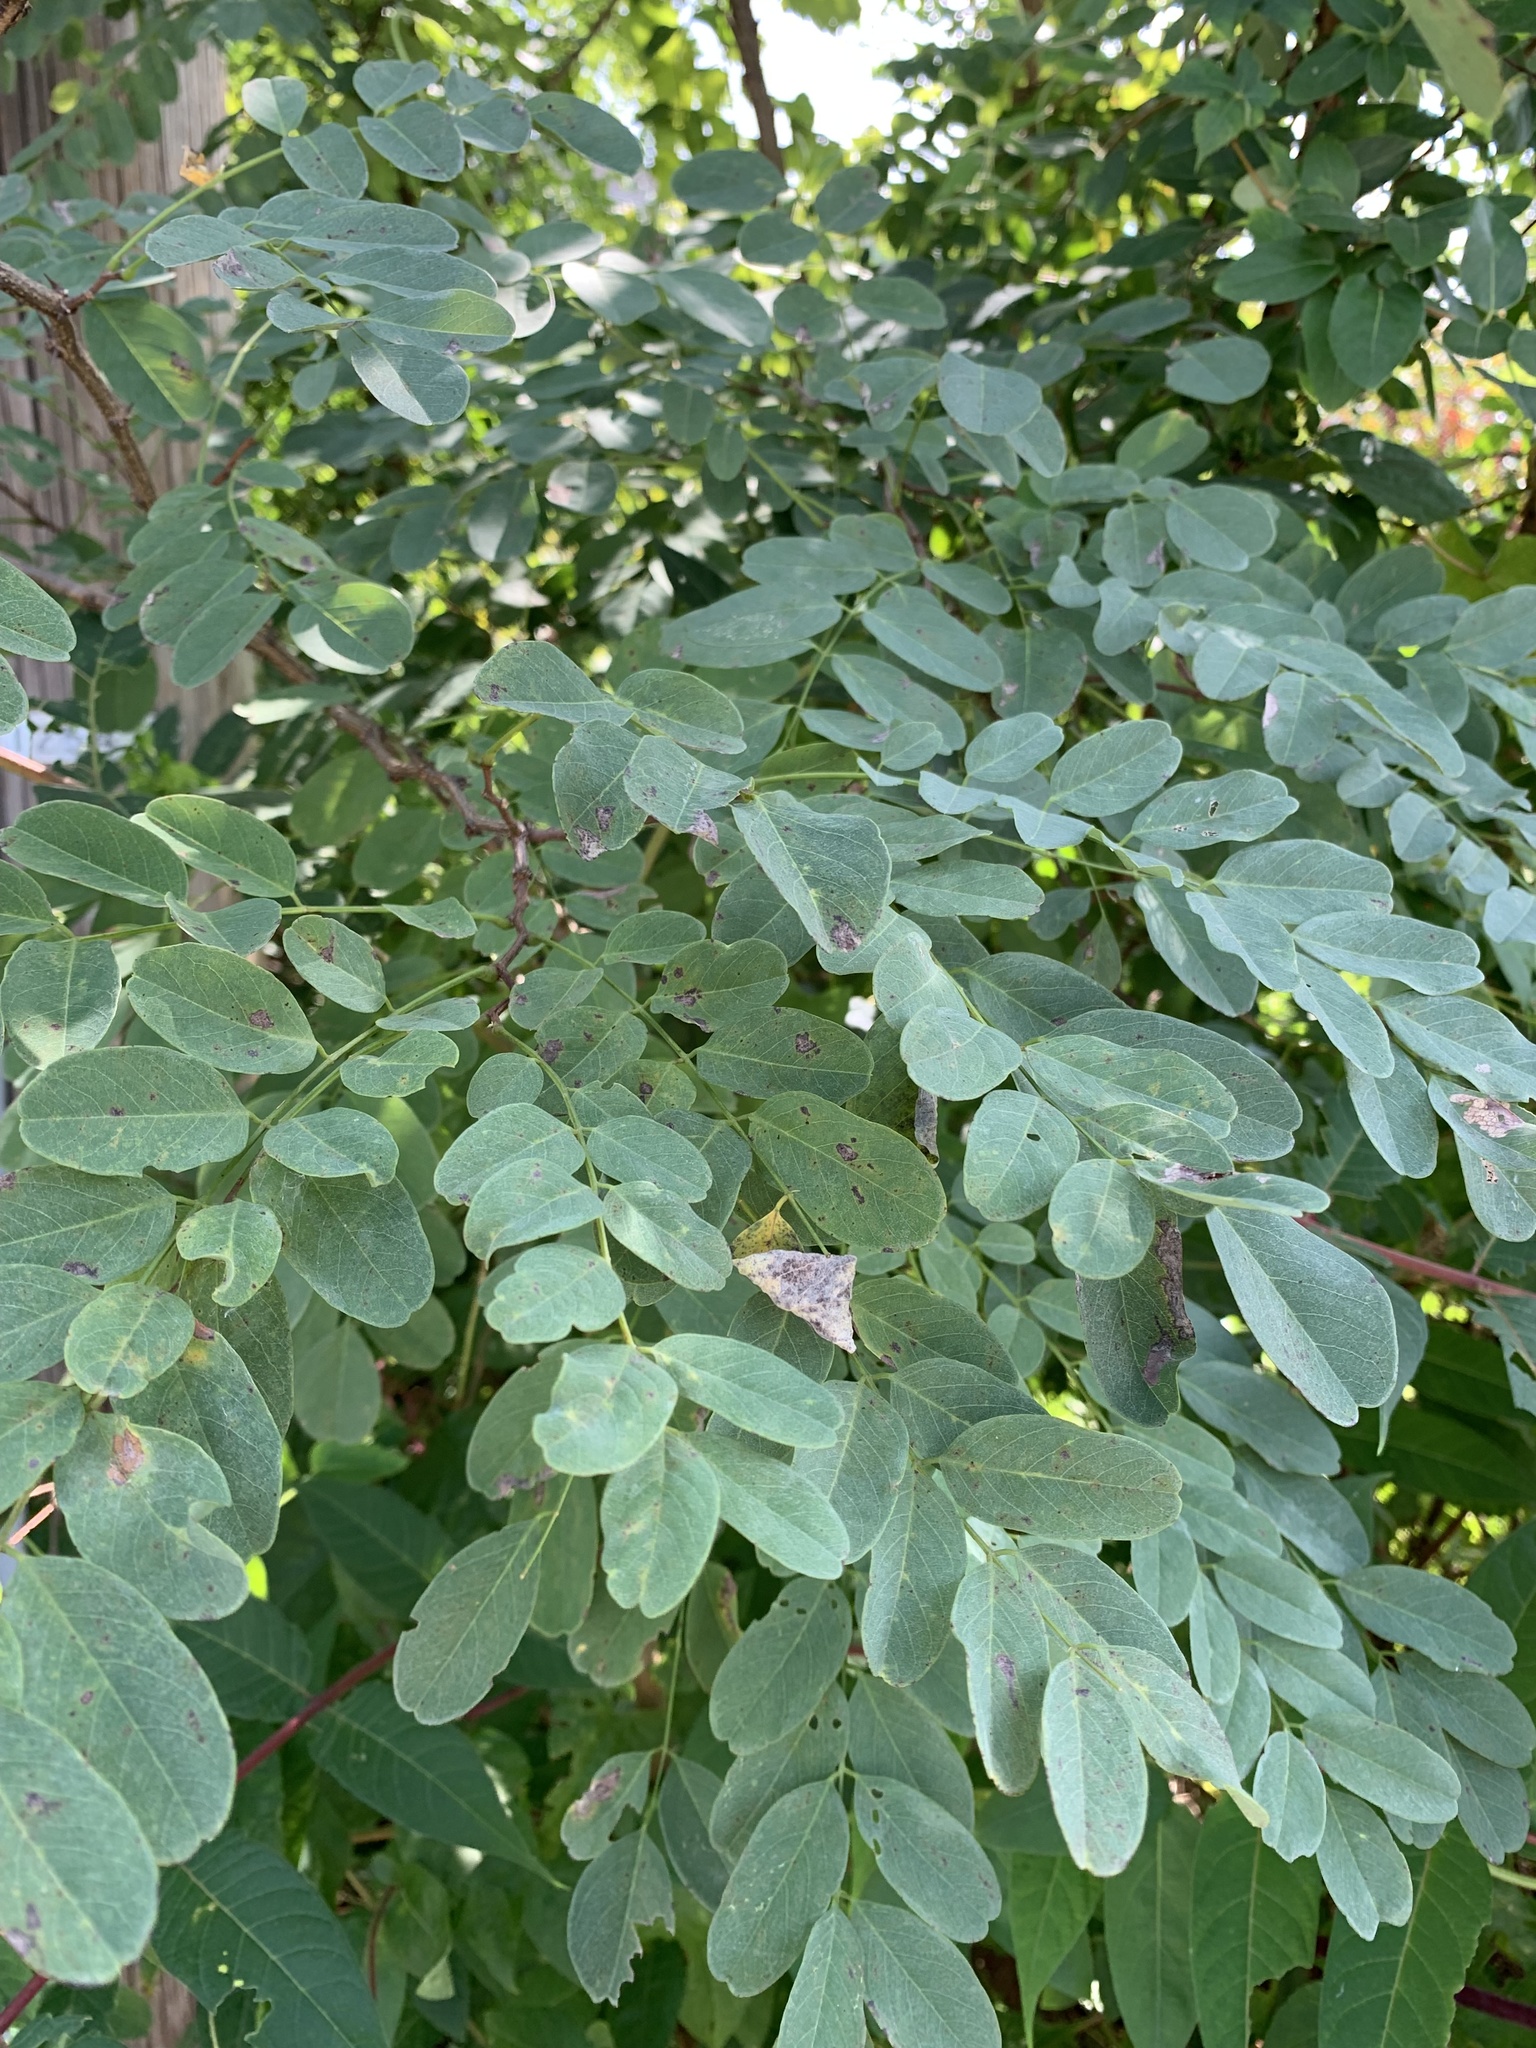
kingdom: Plantae
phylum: Tracheophyta
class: Magnoliopsida
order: Fabales
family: Fabaceae
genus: Robinia
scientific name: Robinia pseudoacacia
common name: Black locust
